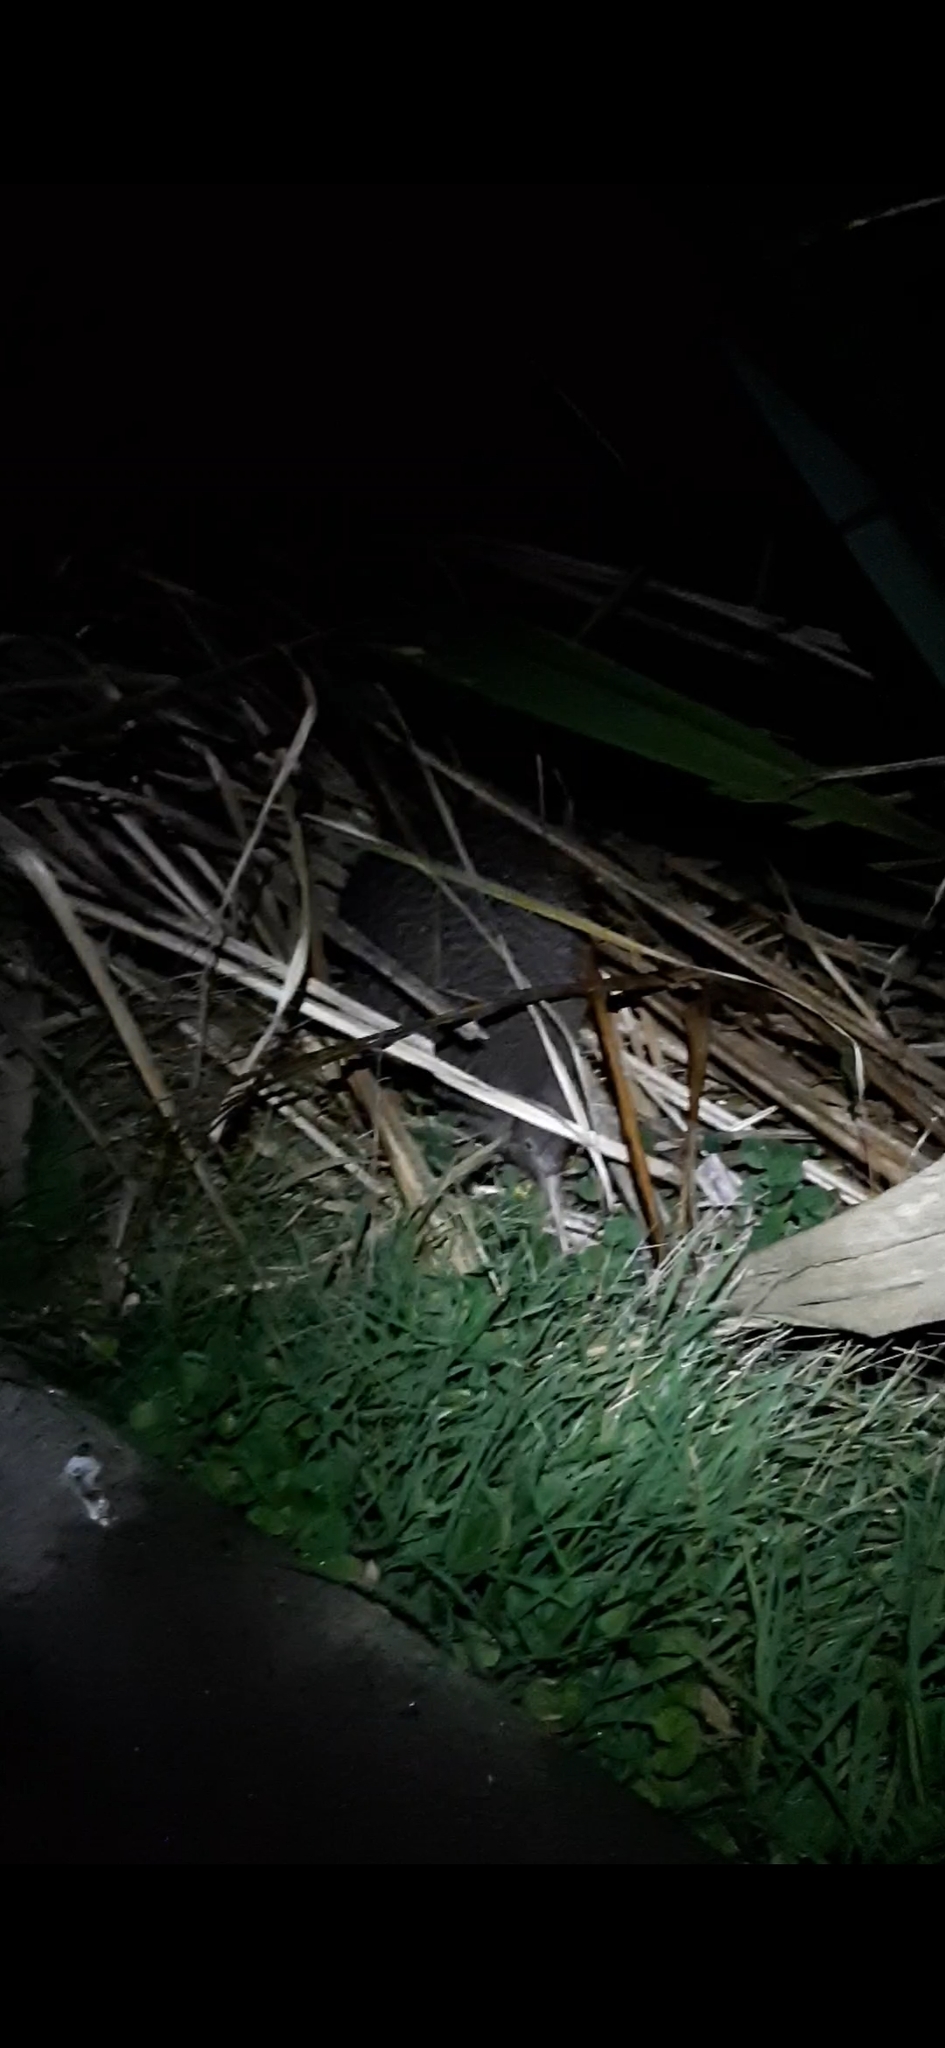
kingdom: Animalia
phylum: Chordata
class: Aves
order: Apterygiformes
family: Apterygidae
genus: Apteryx
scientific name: Apteryx owenii
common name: Little spotted kiwi
